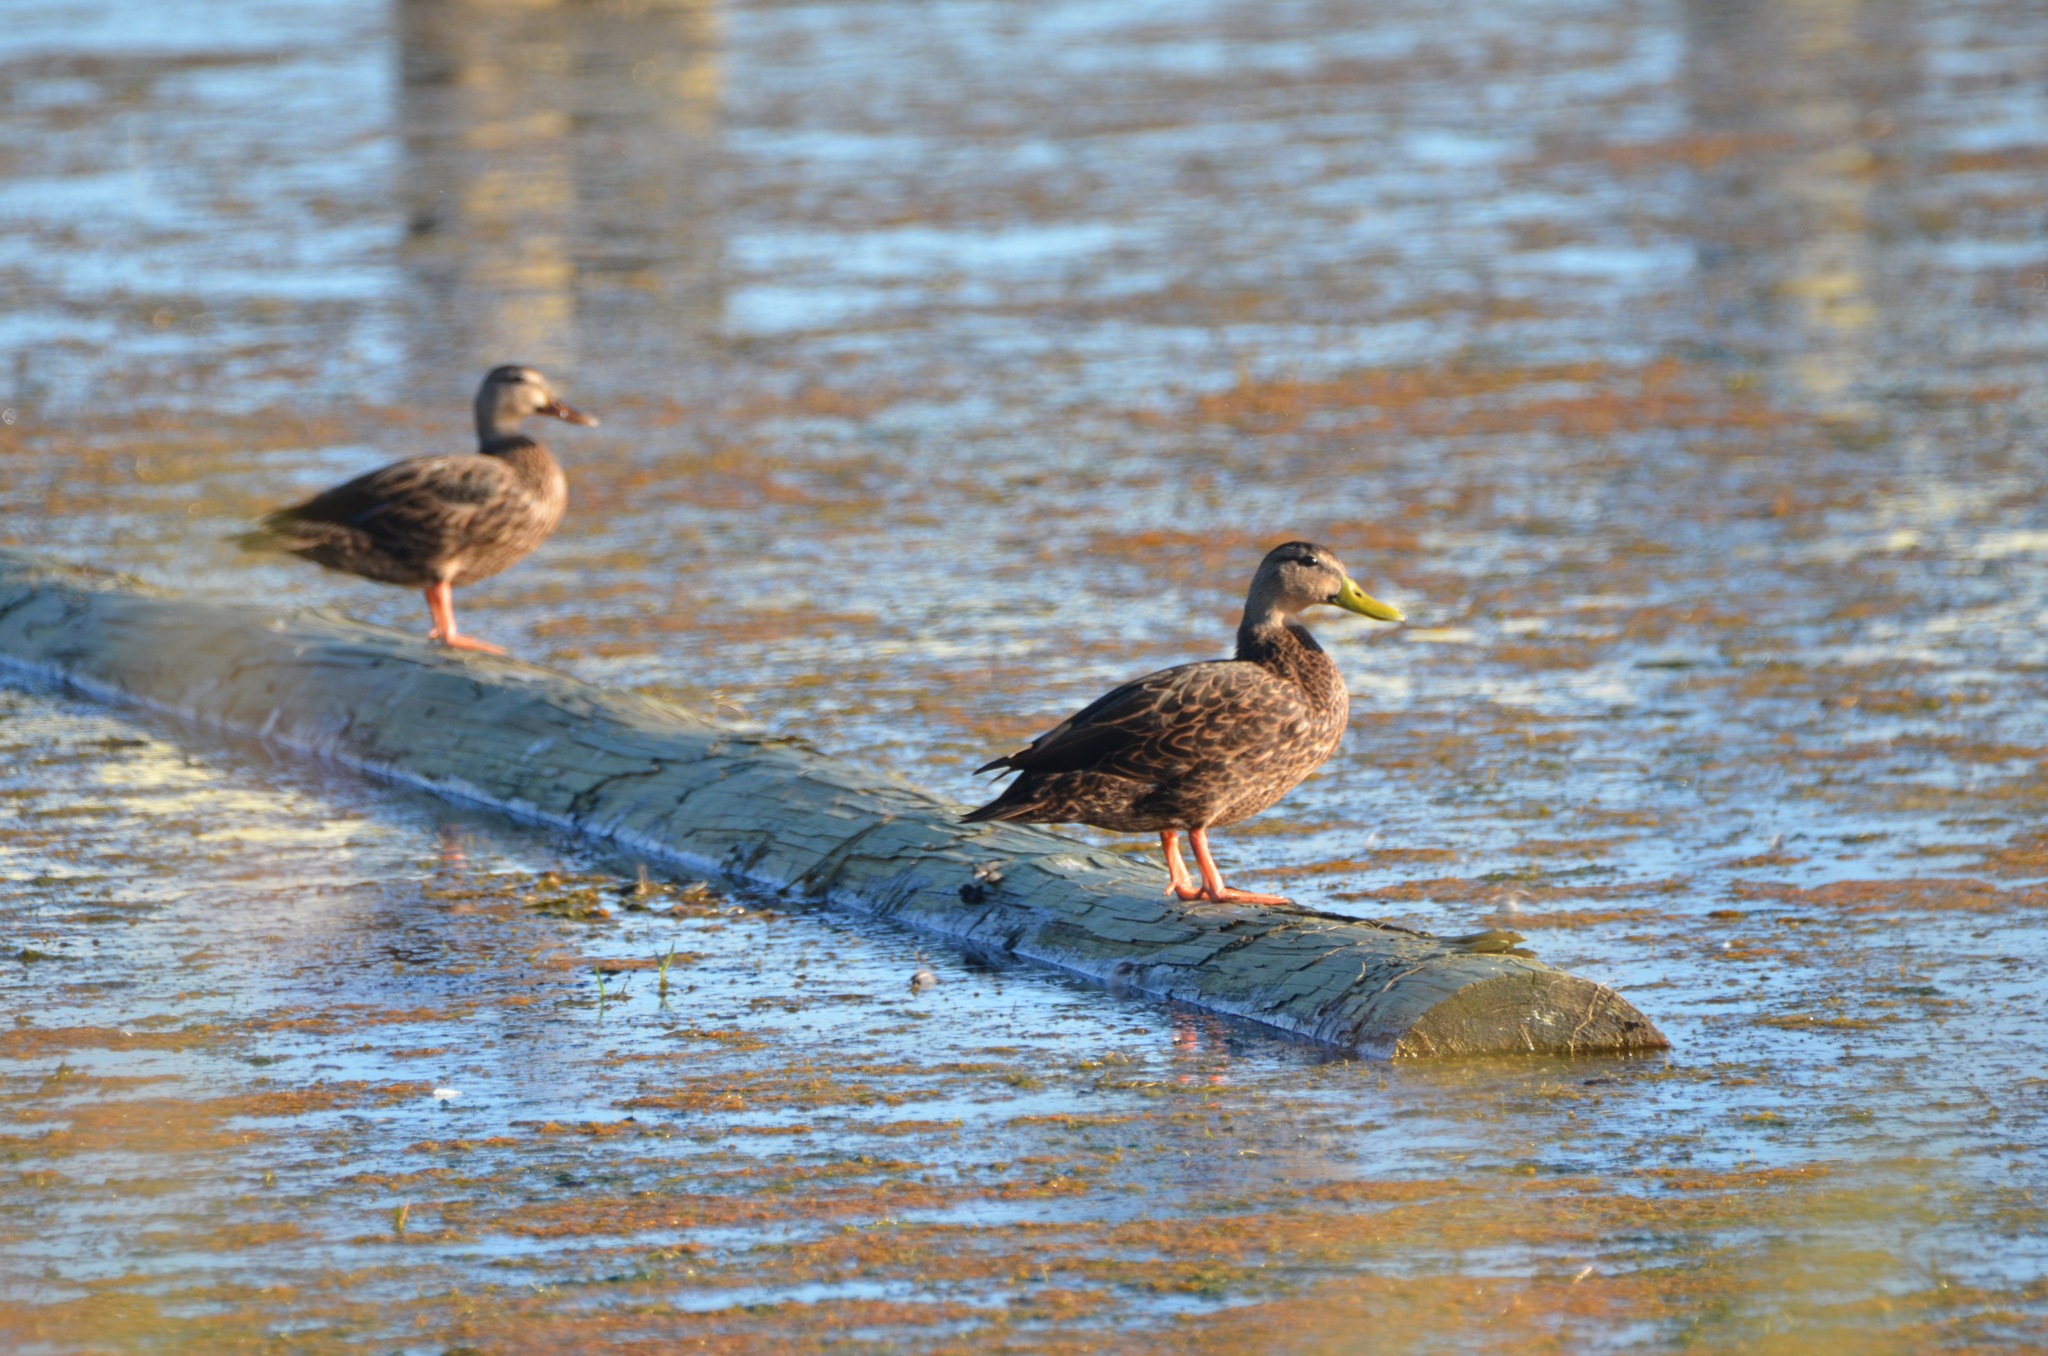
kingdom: Animalia
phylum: Chordata
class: Aves
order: Anseriformes
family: Anatidae
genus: Anas
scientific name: Anas fulvigula
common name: Mottled duck
